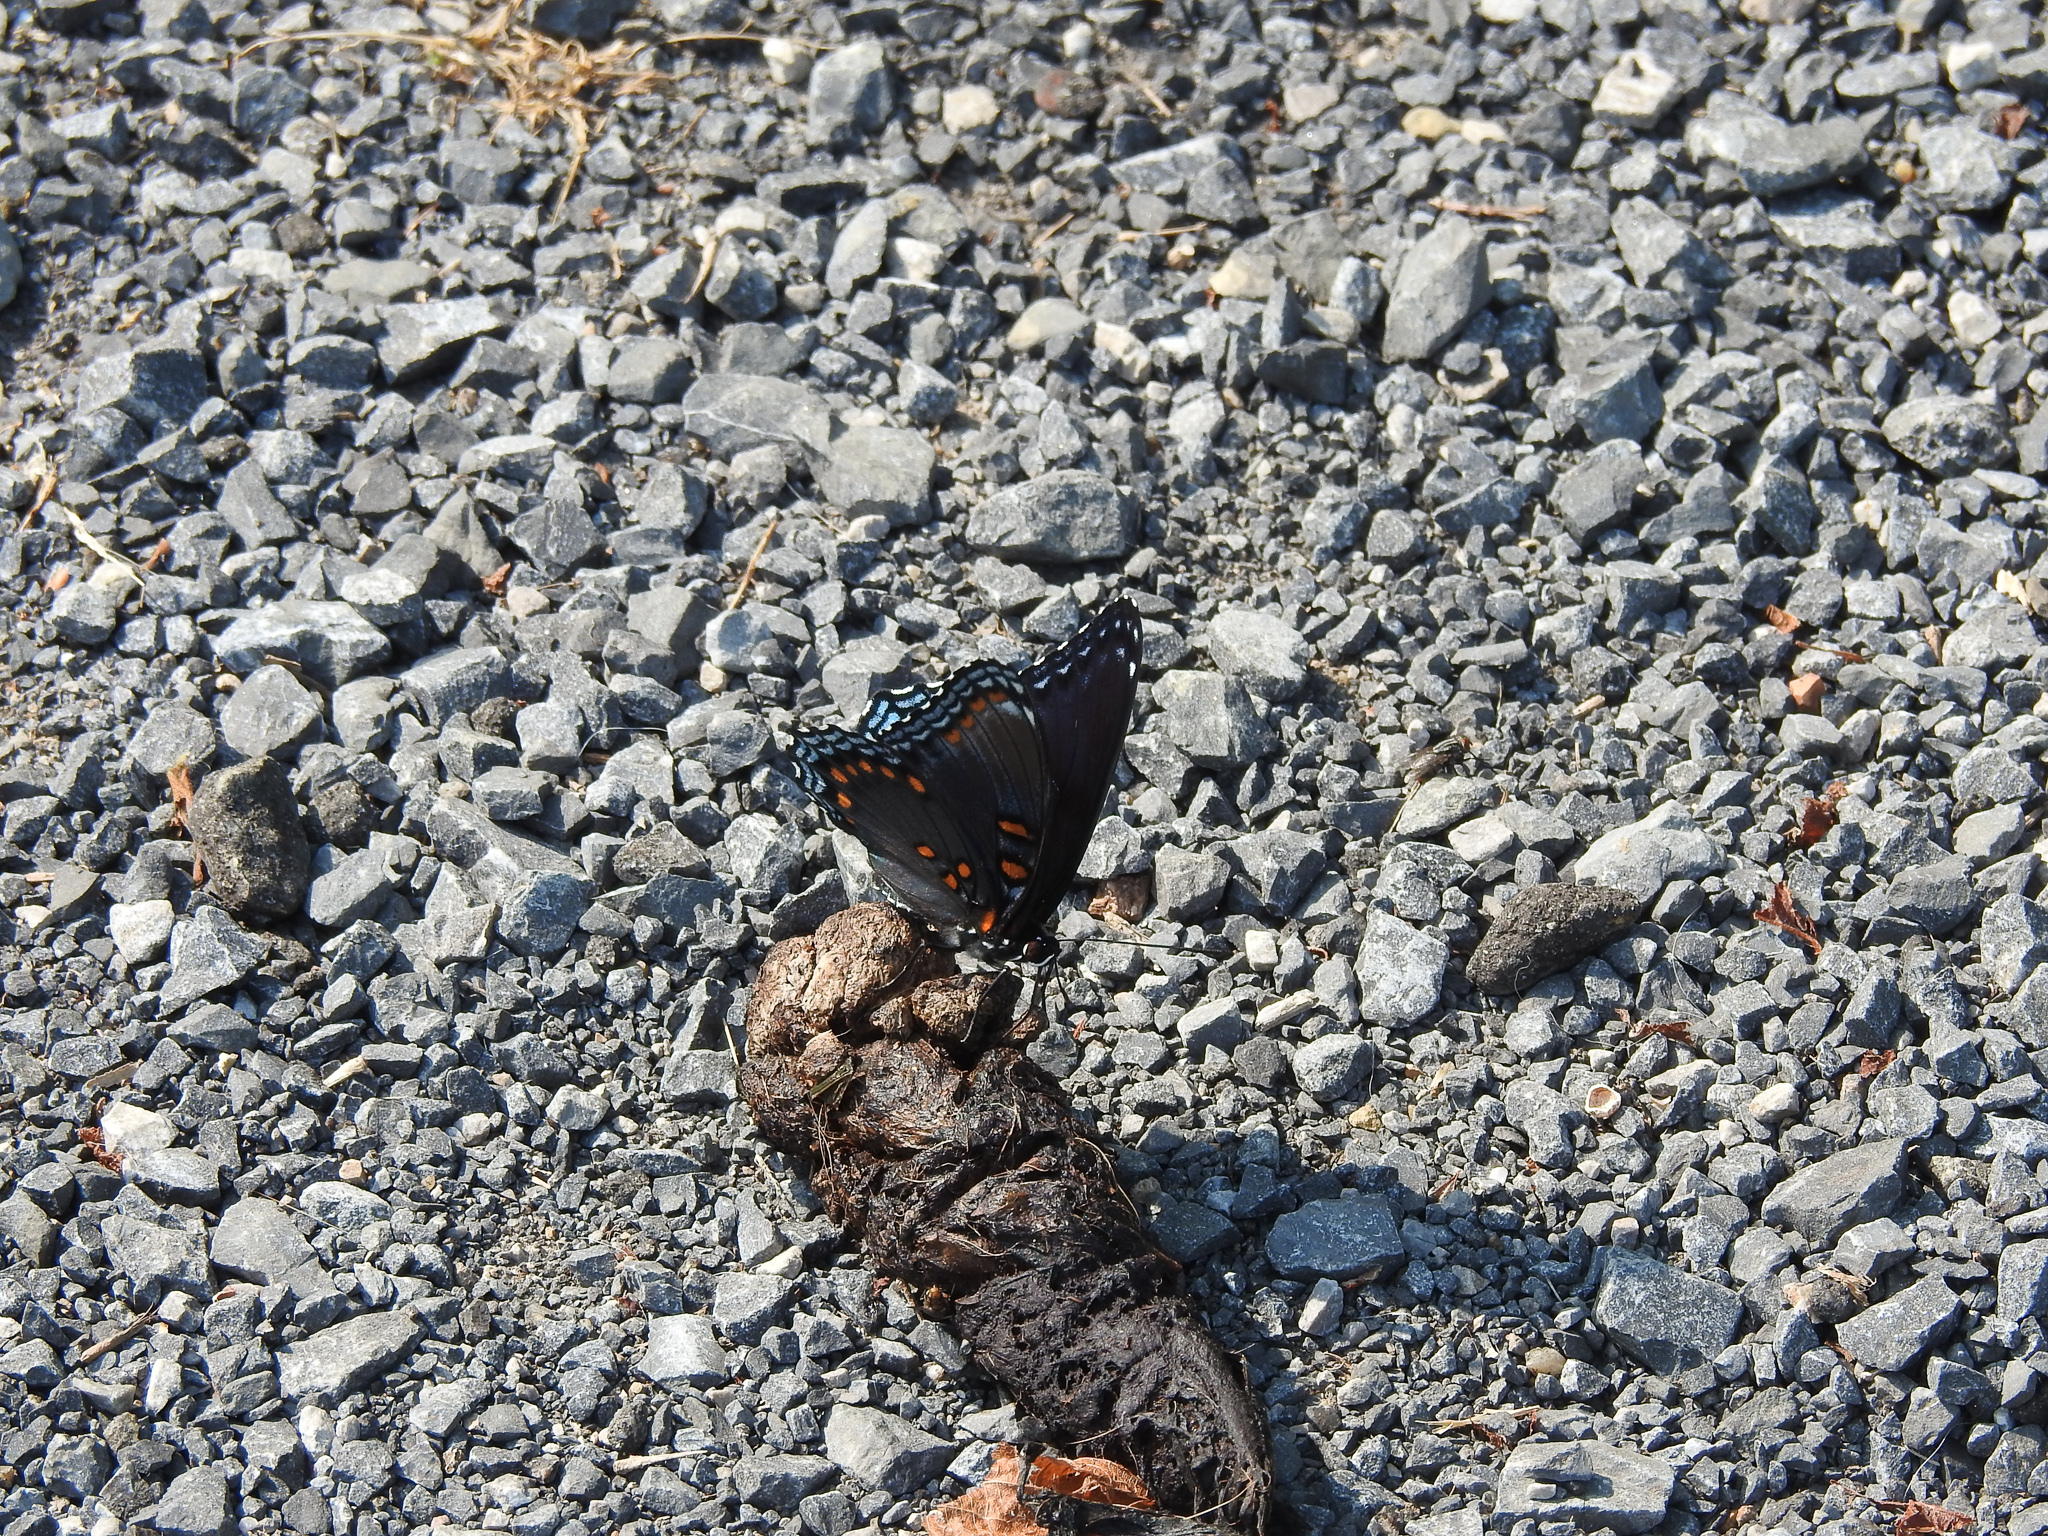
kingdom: Animalia
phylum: Arthropoda
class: Insecta
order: Lepidoptera
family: Nymphalidae
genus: Limenitis
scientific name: Limenitis astyanax
